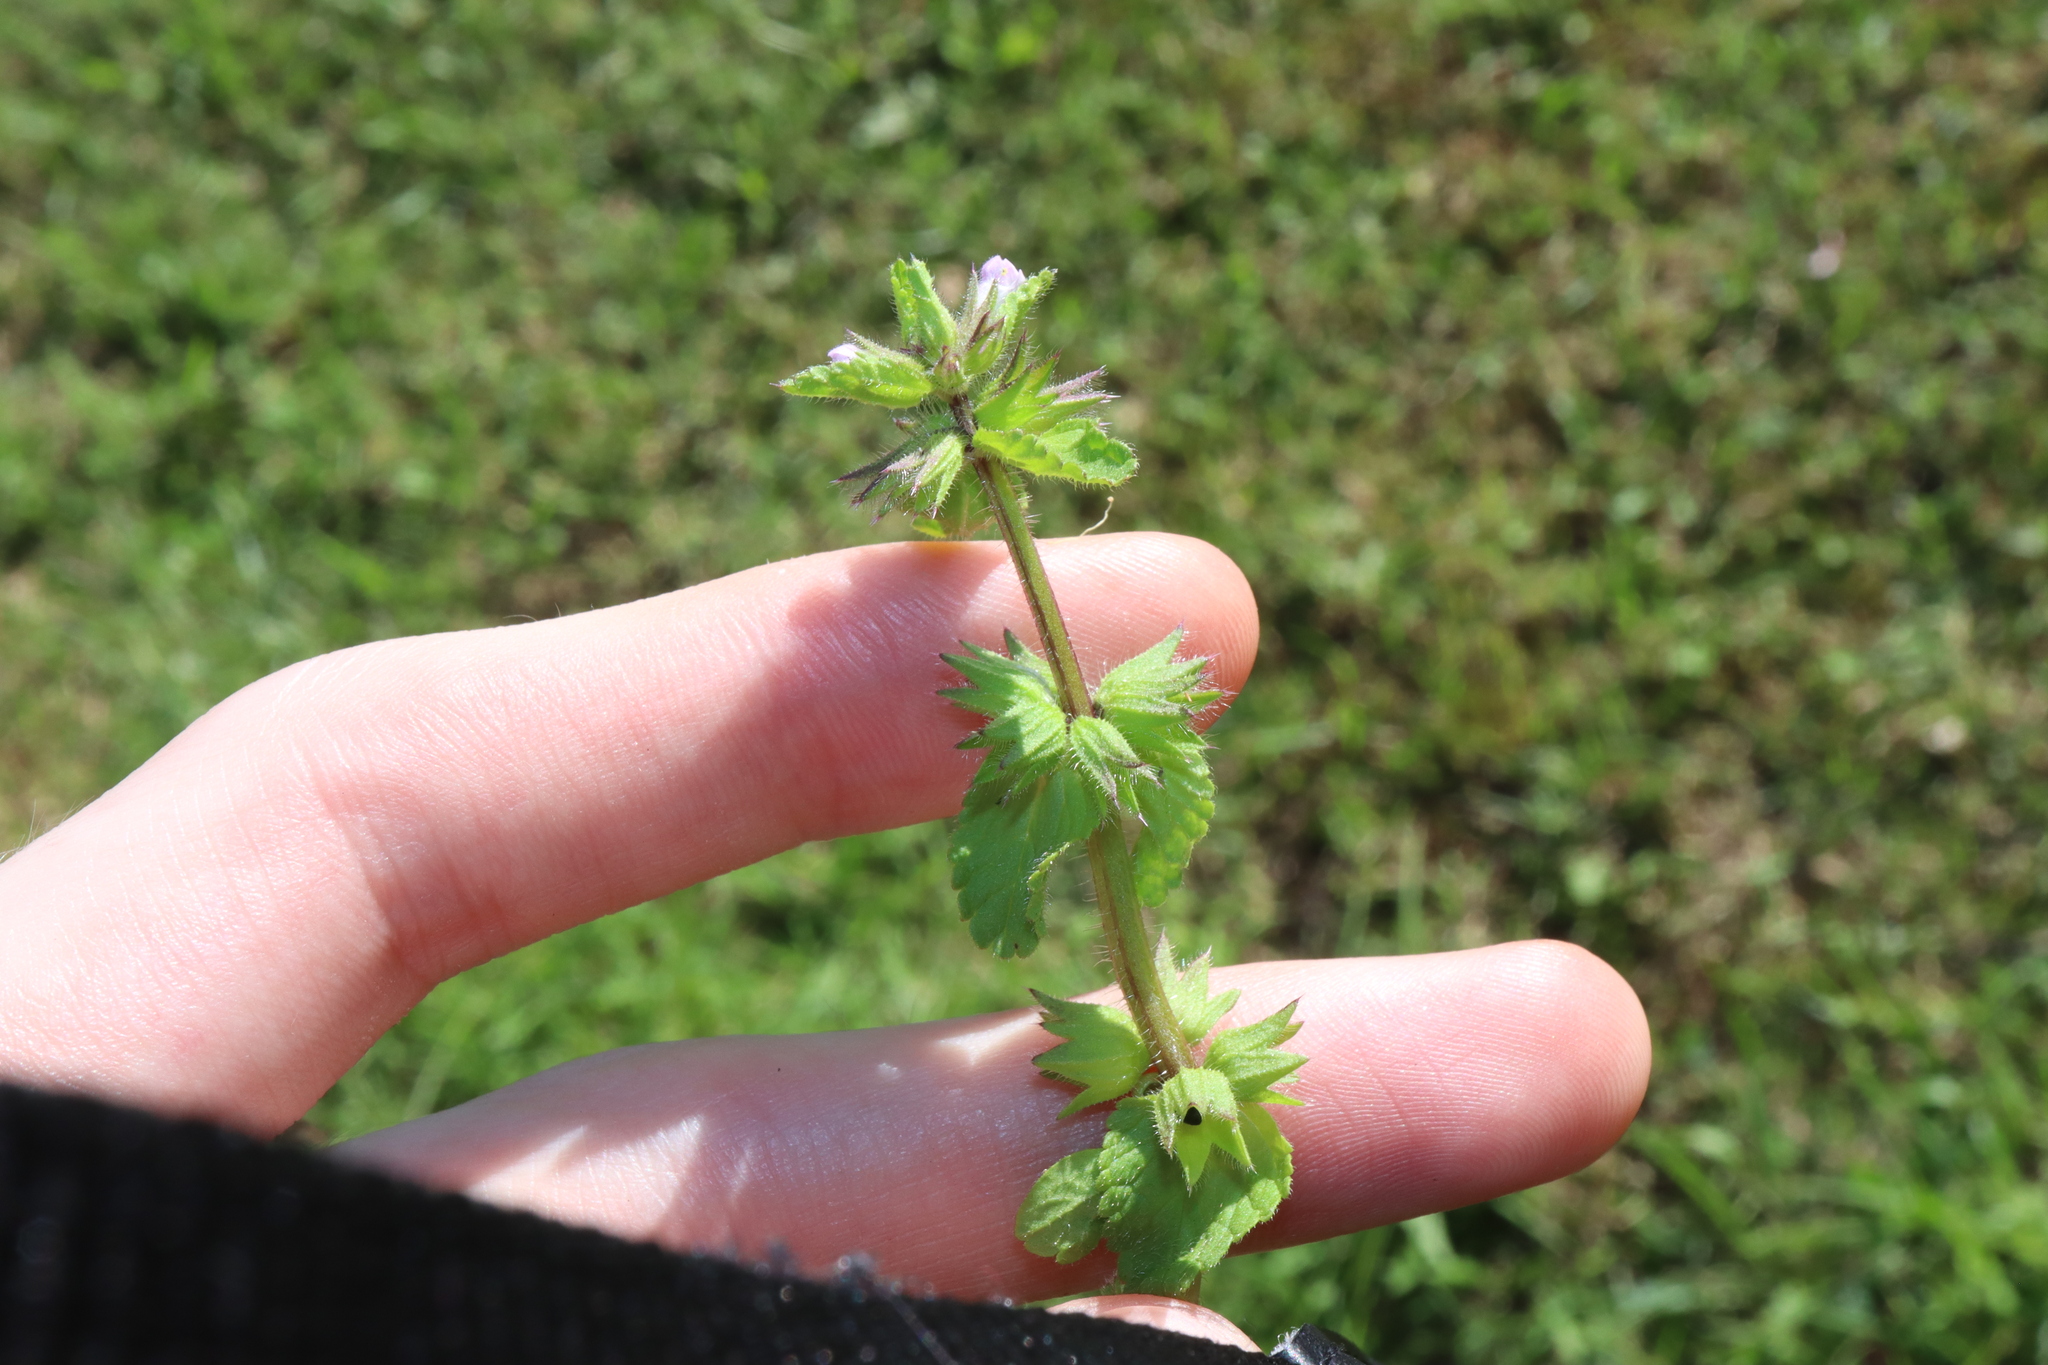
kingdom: Plantae
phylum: Tracheophyta
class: Magnoliopsida
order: Lamiales
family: Lamiaceae
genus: Stachys
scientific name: Stachys arvensis
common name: Field woundwort
